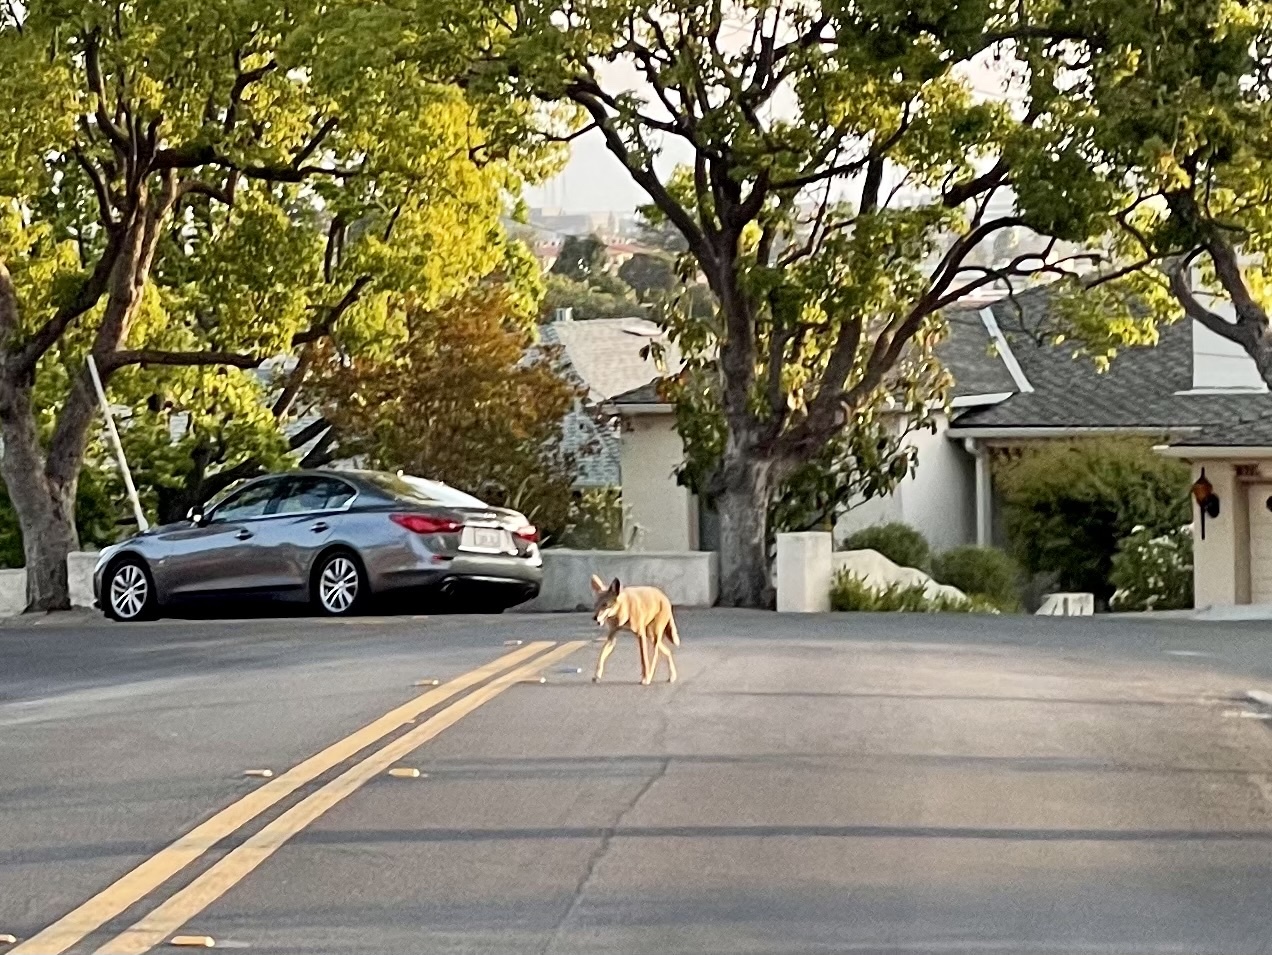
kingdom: Animalia
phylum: Chordata
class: Mammalia
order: Carnivora
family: Canidae
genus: Canis
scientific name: Canis latrans
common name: Coyote
